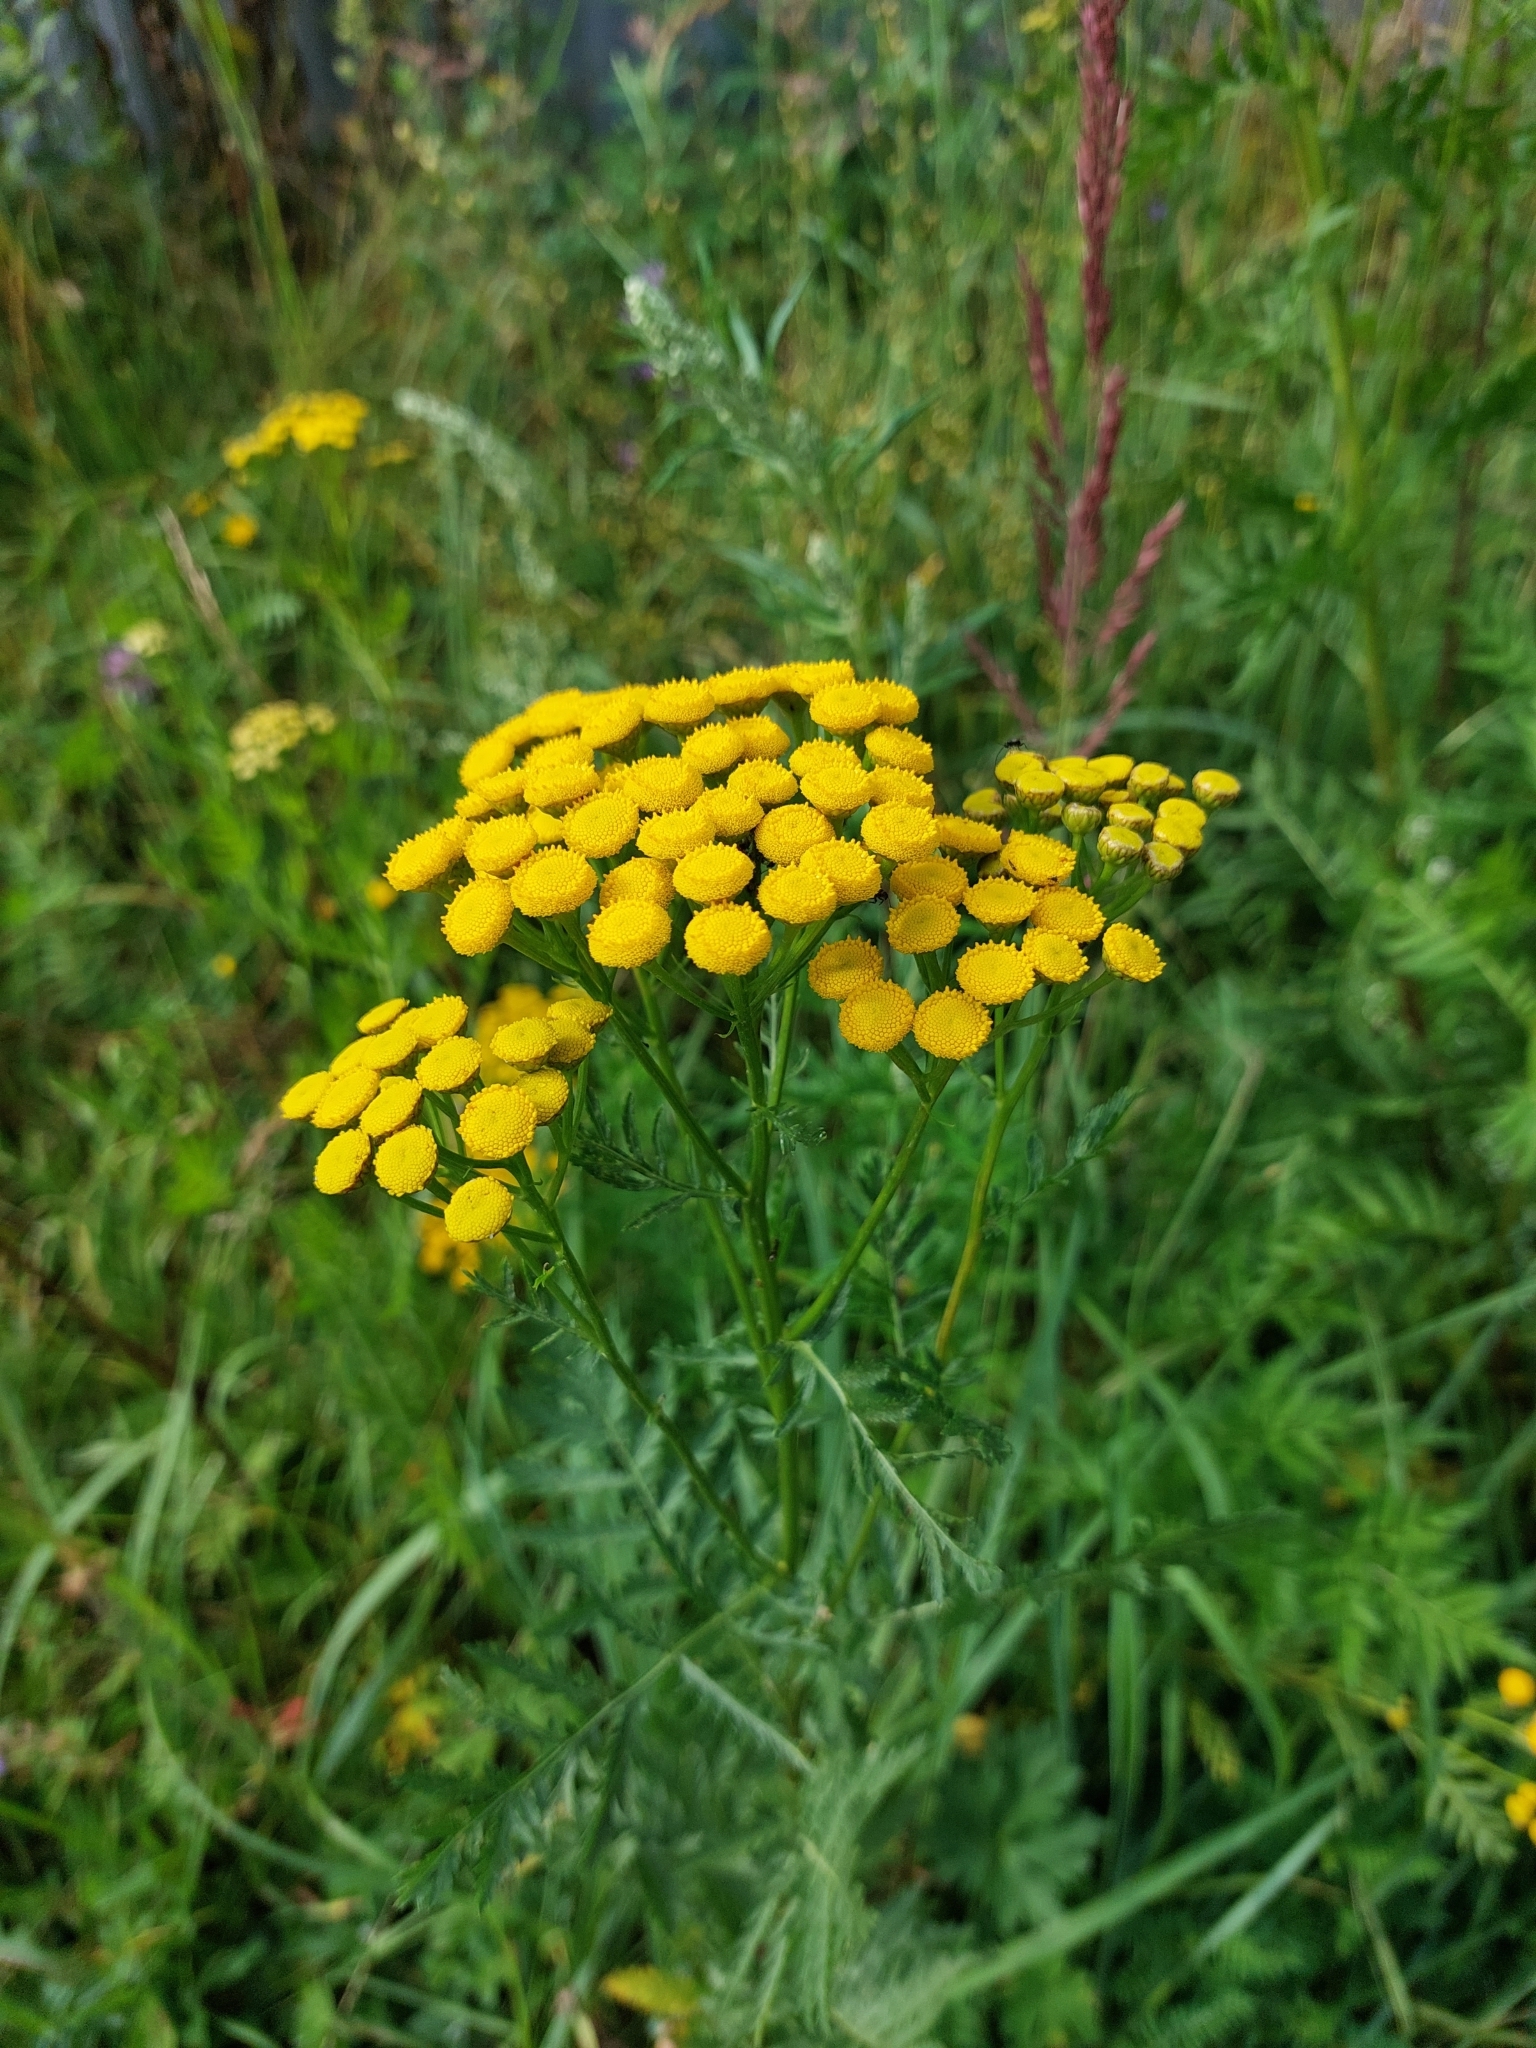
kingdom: Plantae
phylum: Tracheophyta
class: Magnoliopsida
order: Asterales
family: Asteraceae
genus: Tanacetum
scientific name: Tanacetum vulgare
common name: Common tansy
